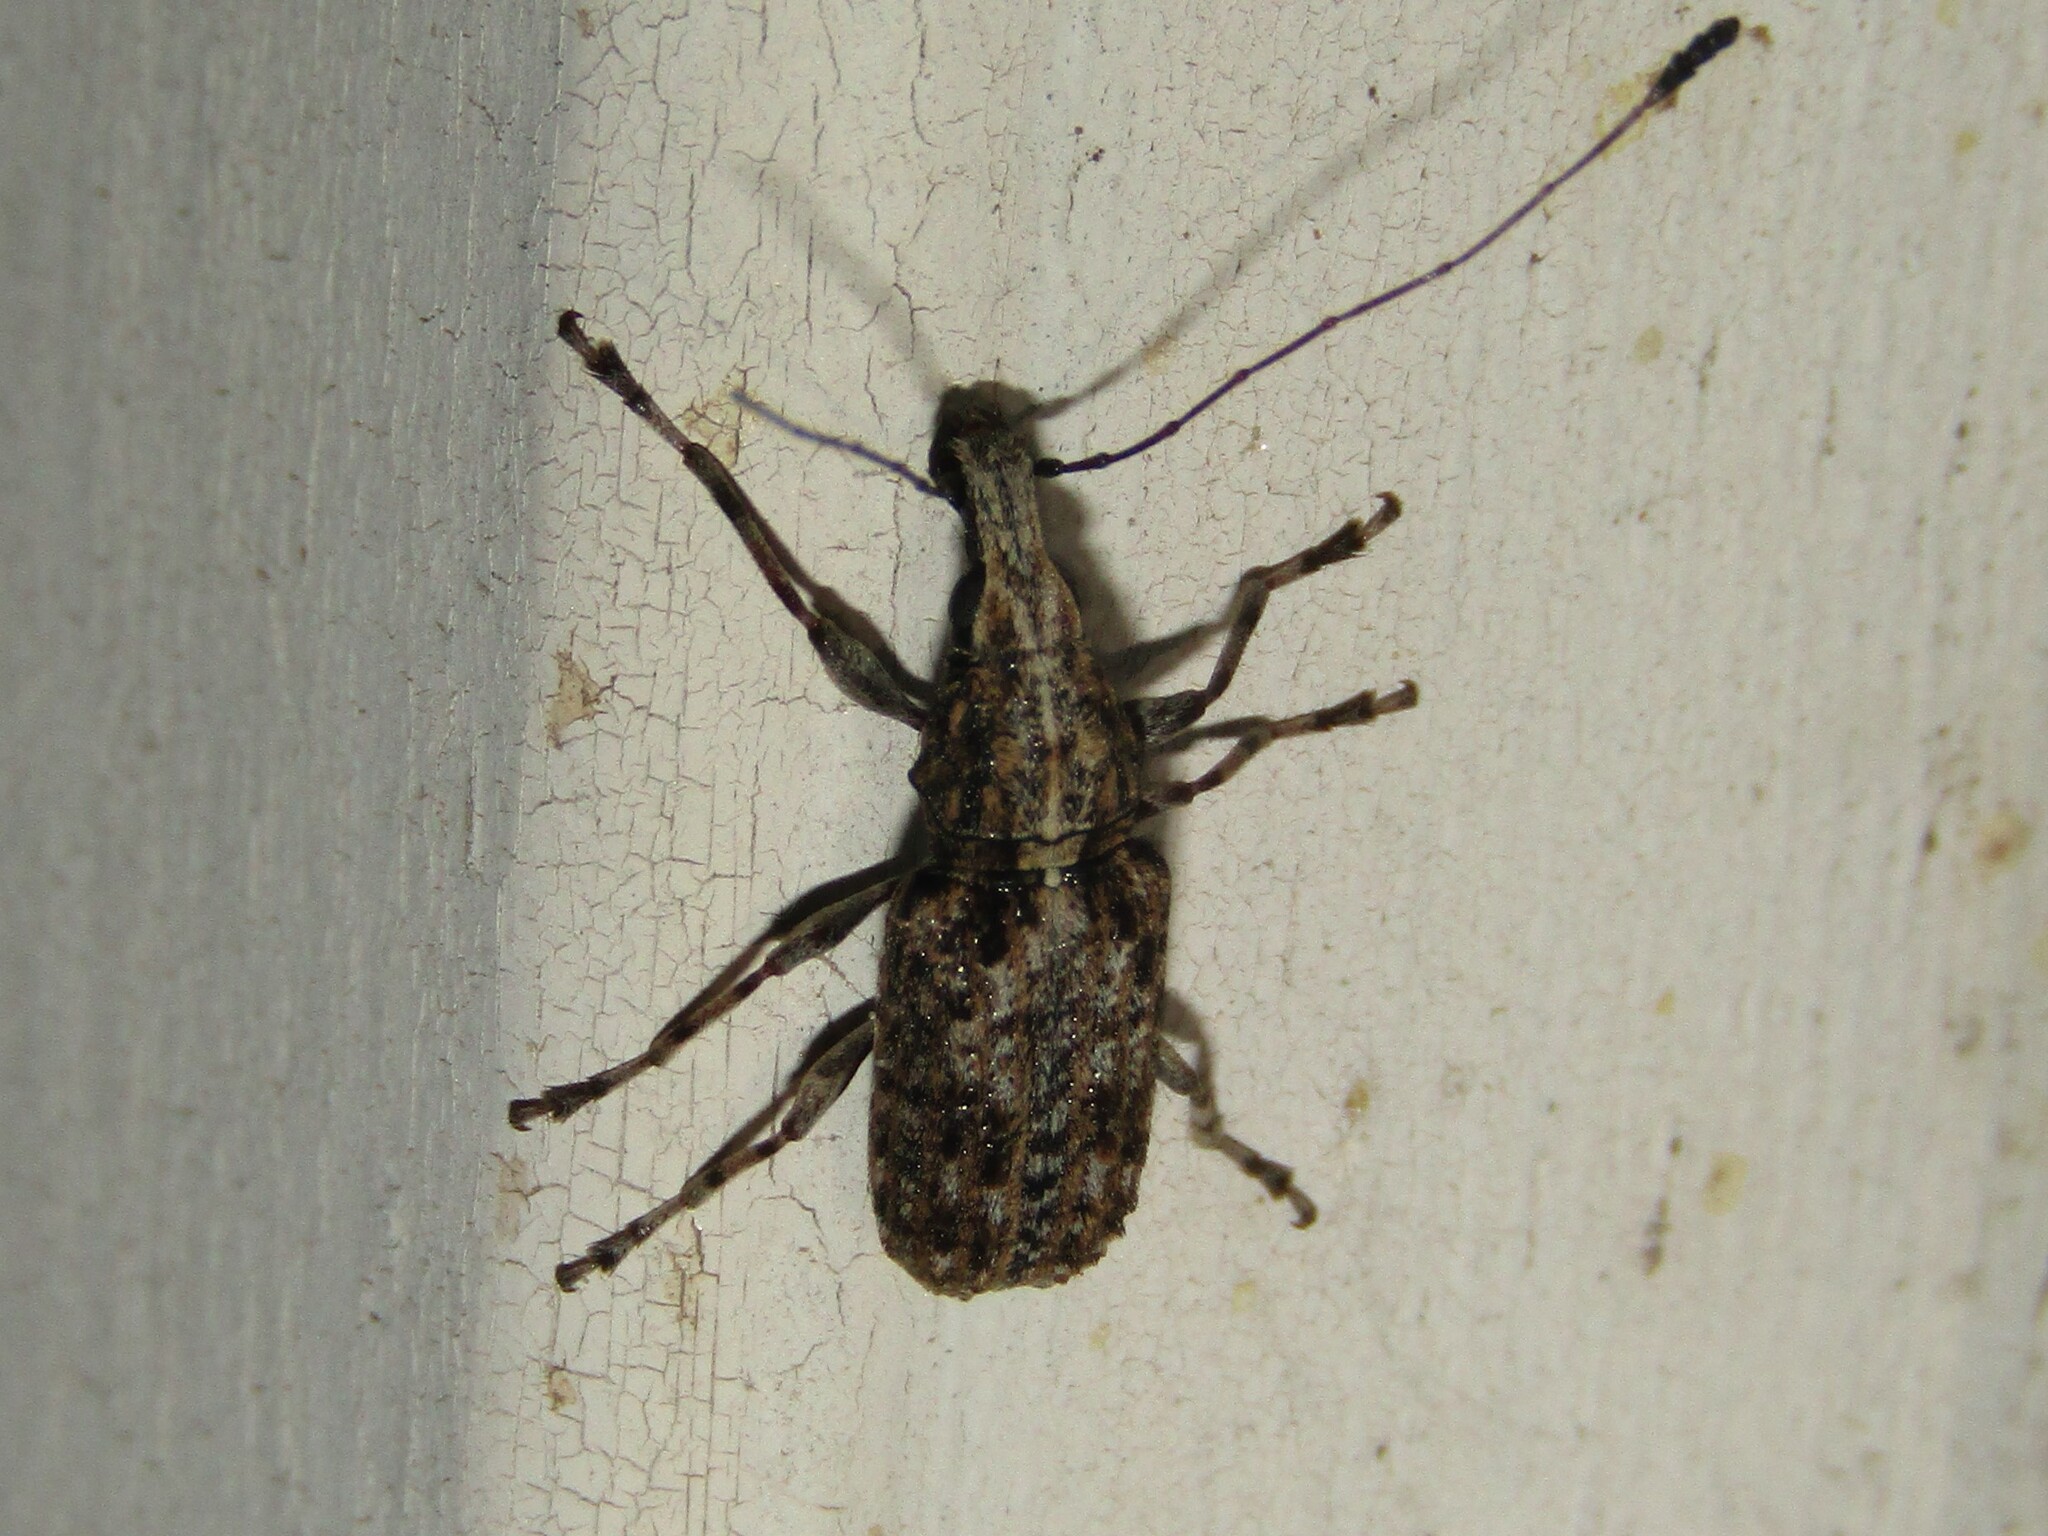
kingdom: Animalia
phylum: Arthropoda
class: Insecta
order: Coleoptera
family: Anthribidae
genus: Meconemus
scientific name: Meconemus infuscatus
